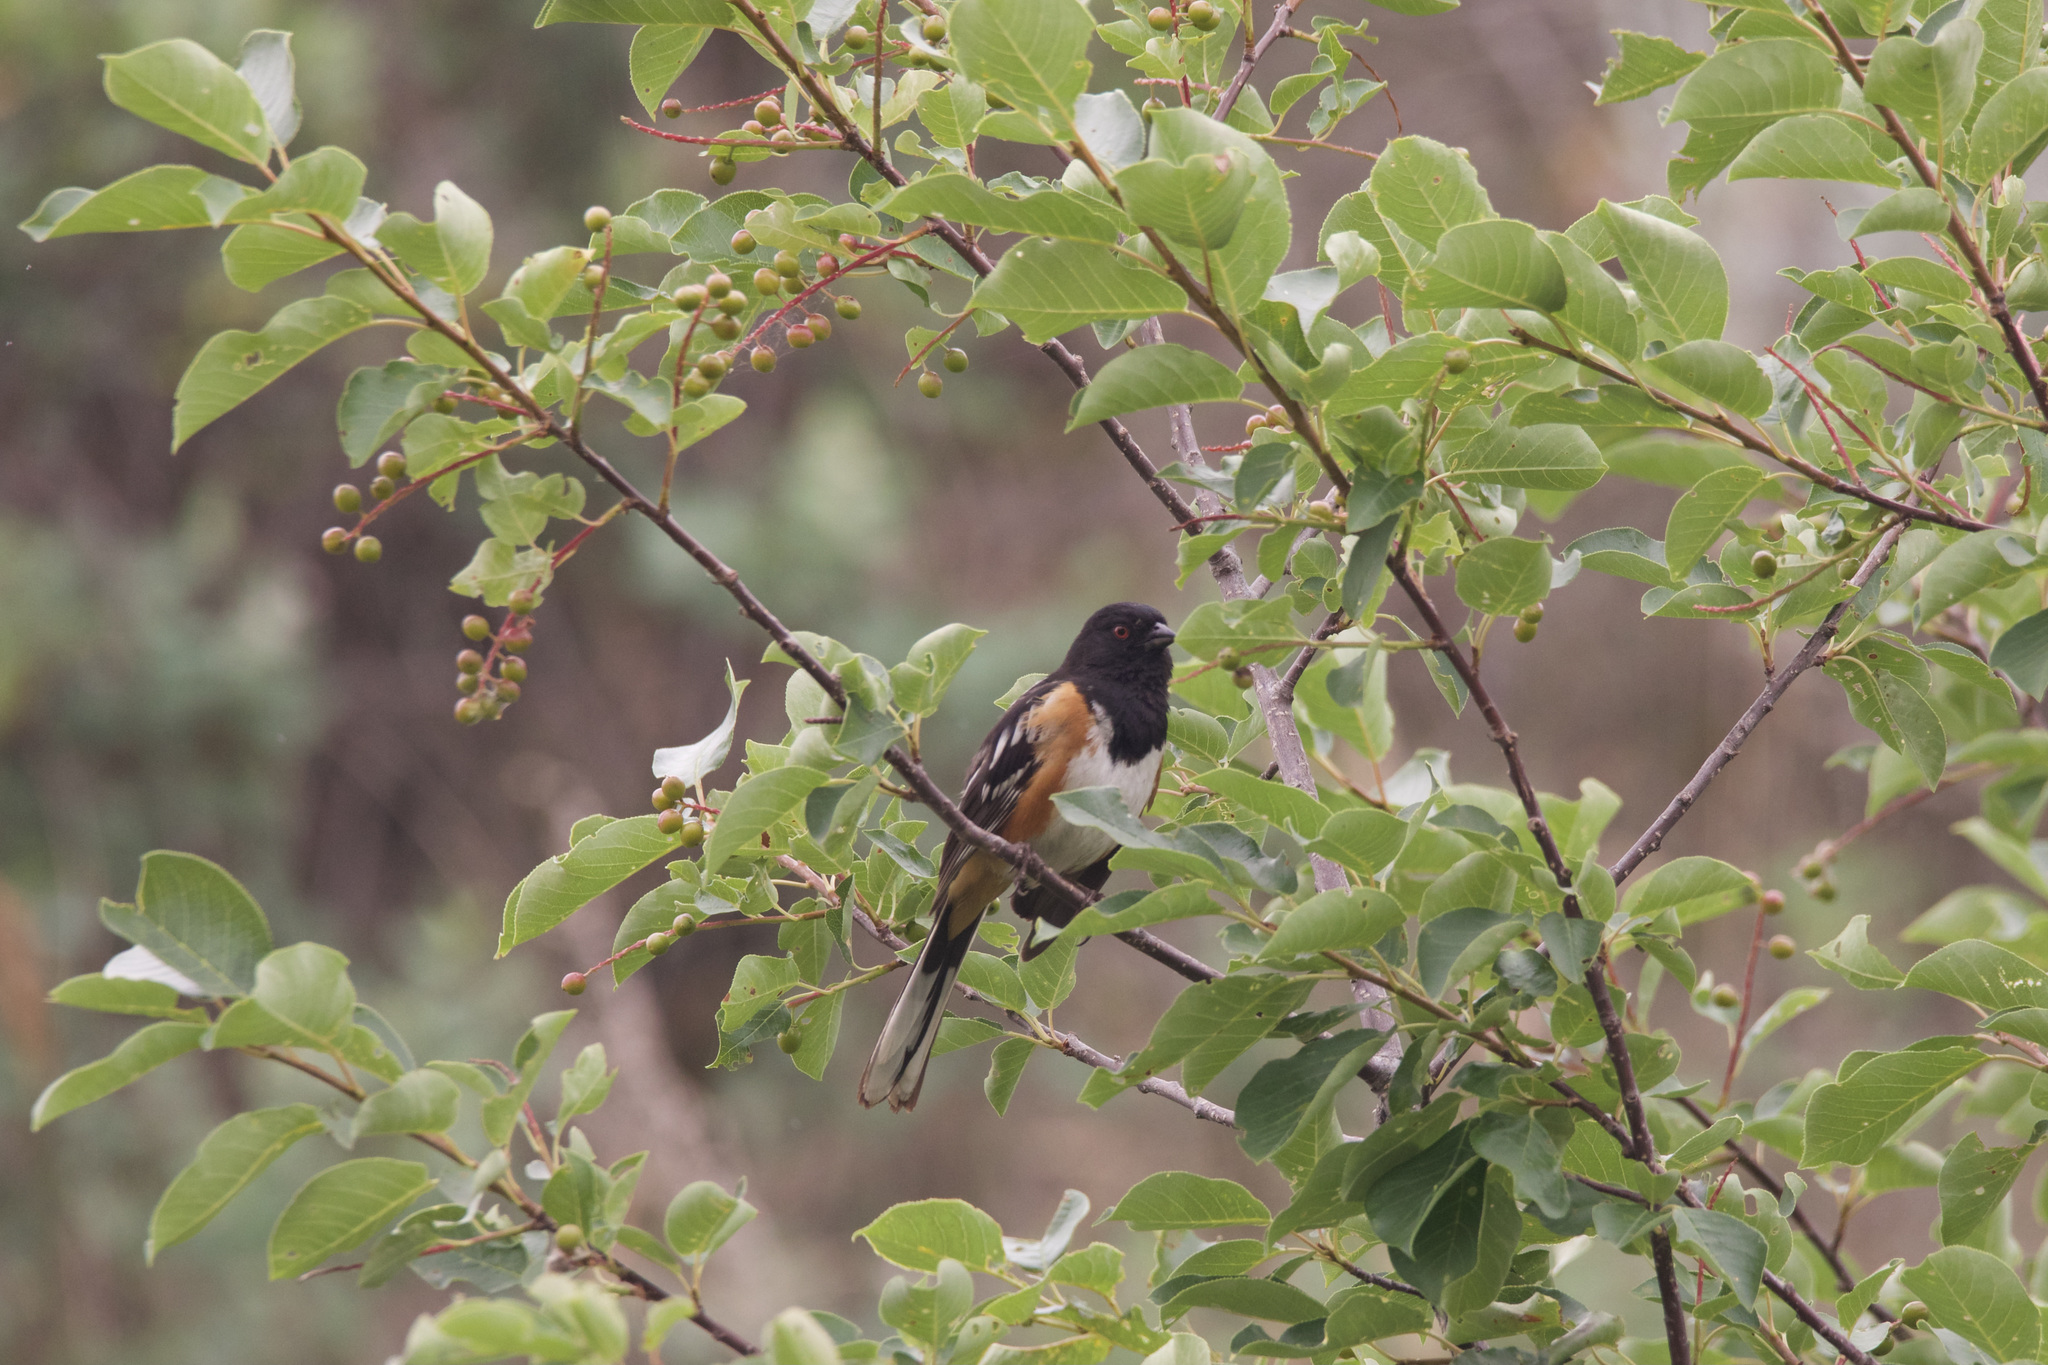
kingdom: Animalia
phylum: Chordata
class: Aves
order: Passeriformes
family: Passerellidae
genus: Pipilo
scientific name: Pipilo maculatus
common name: Spotted towhee
